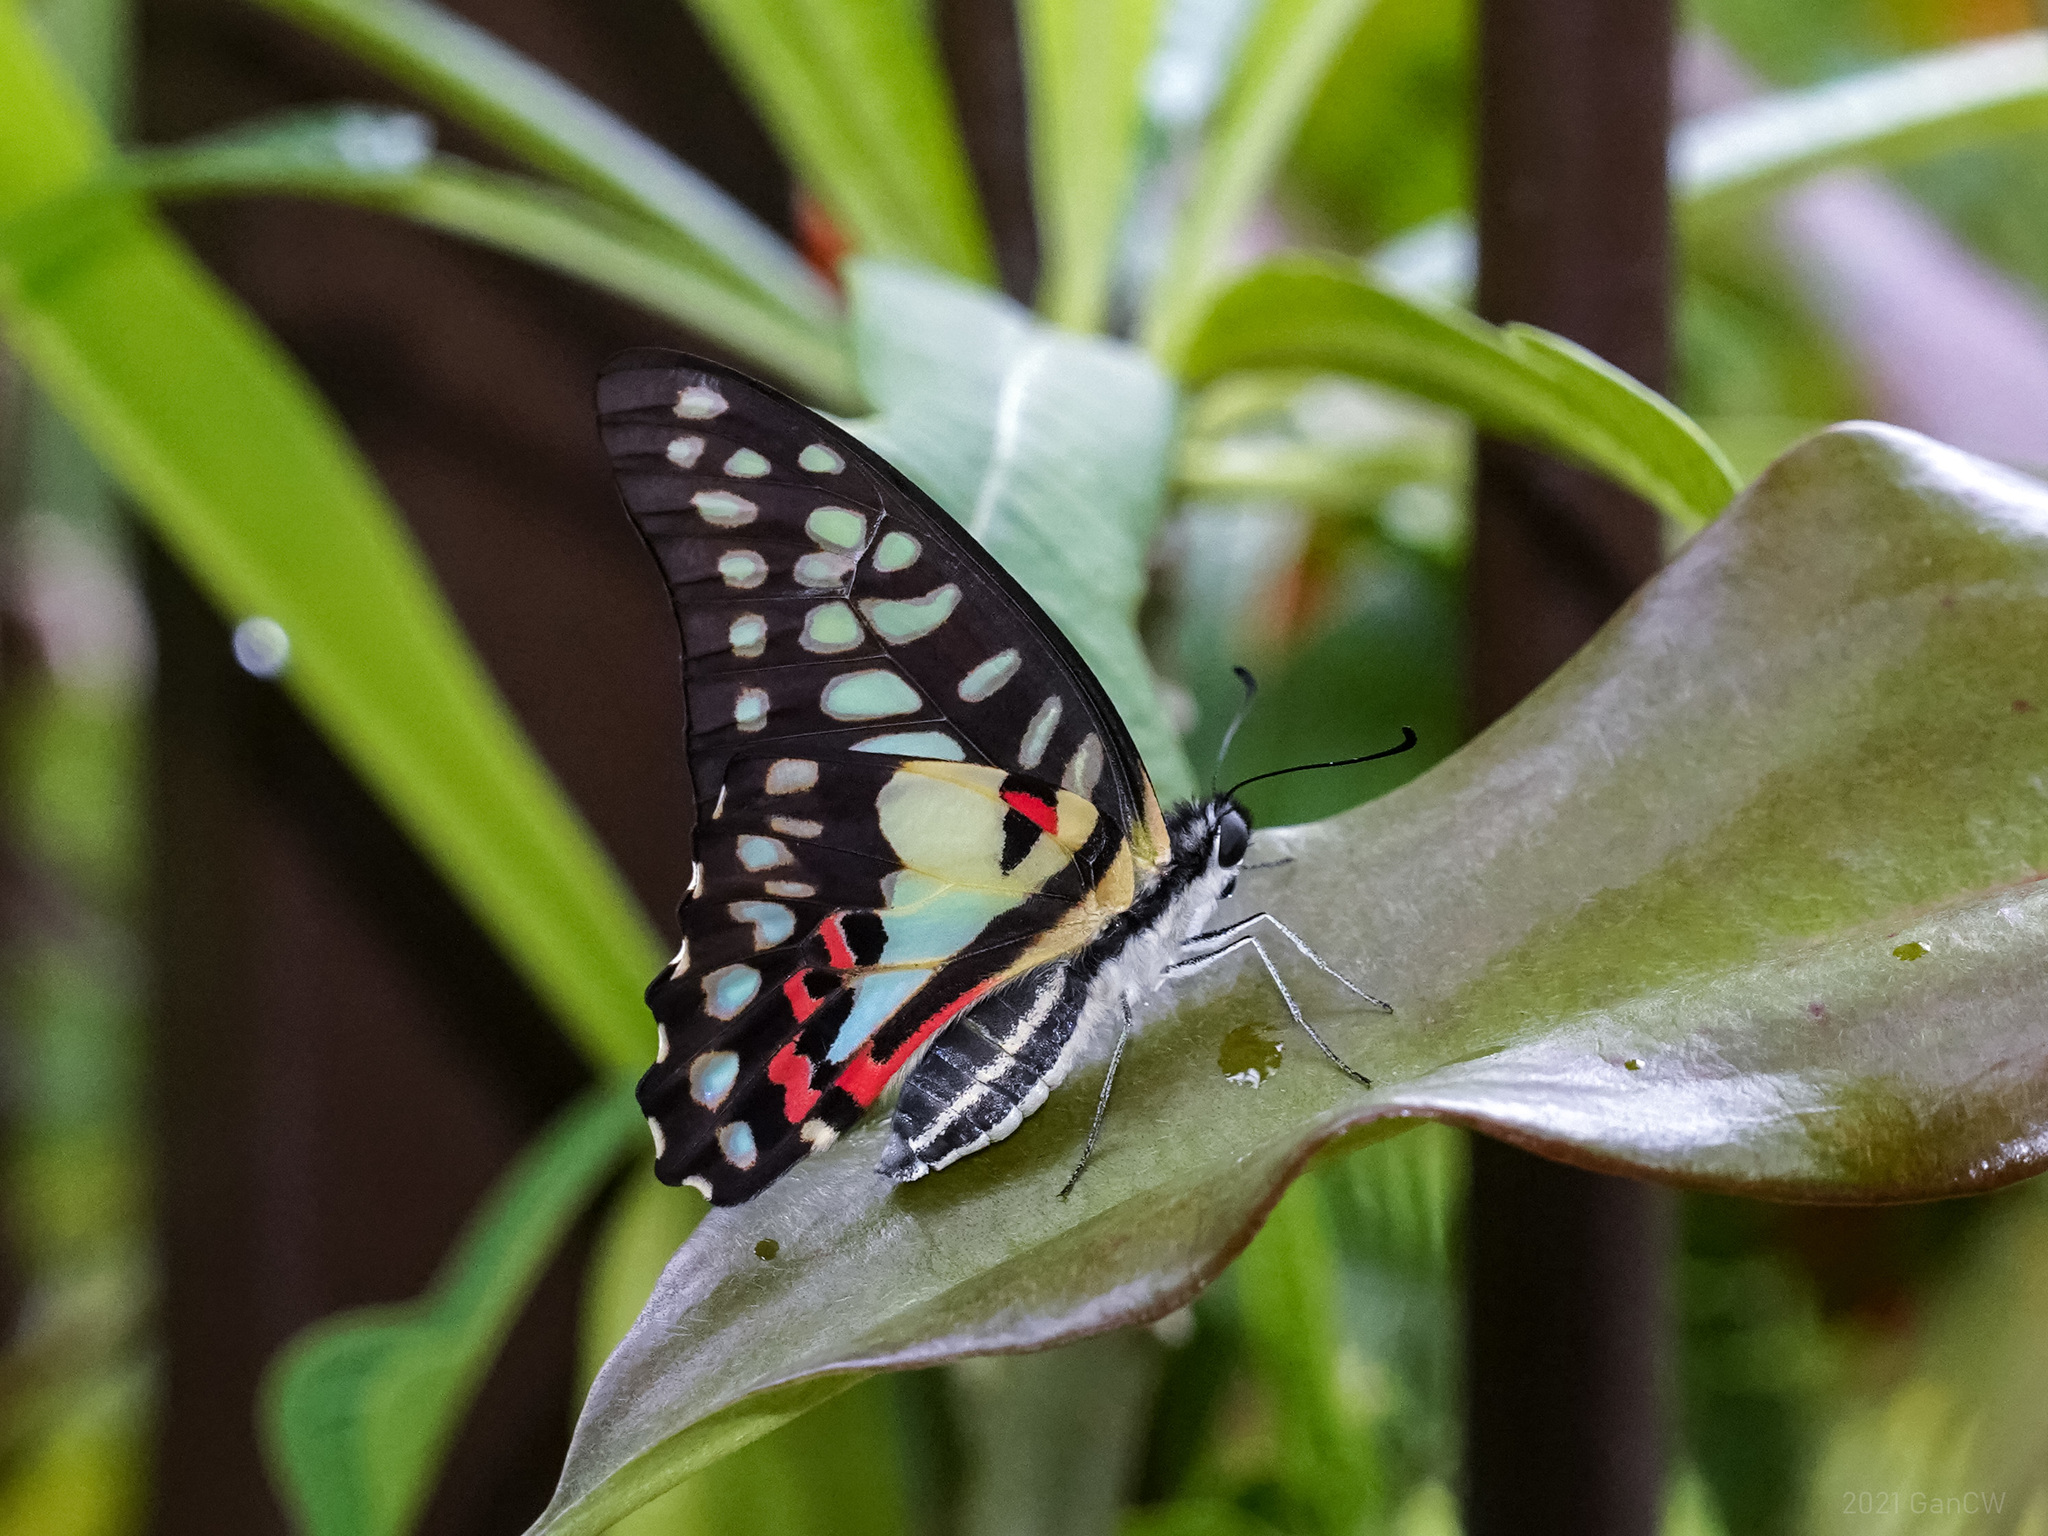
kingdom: Animalia
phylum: Arthropoda
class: Insecta
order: Lepidoptera
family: Papilionidae
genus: Graphium
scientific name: Graphium doson
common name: Common jay
